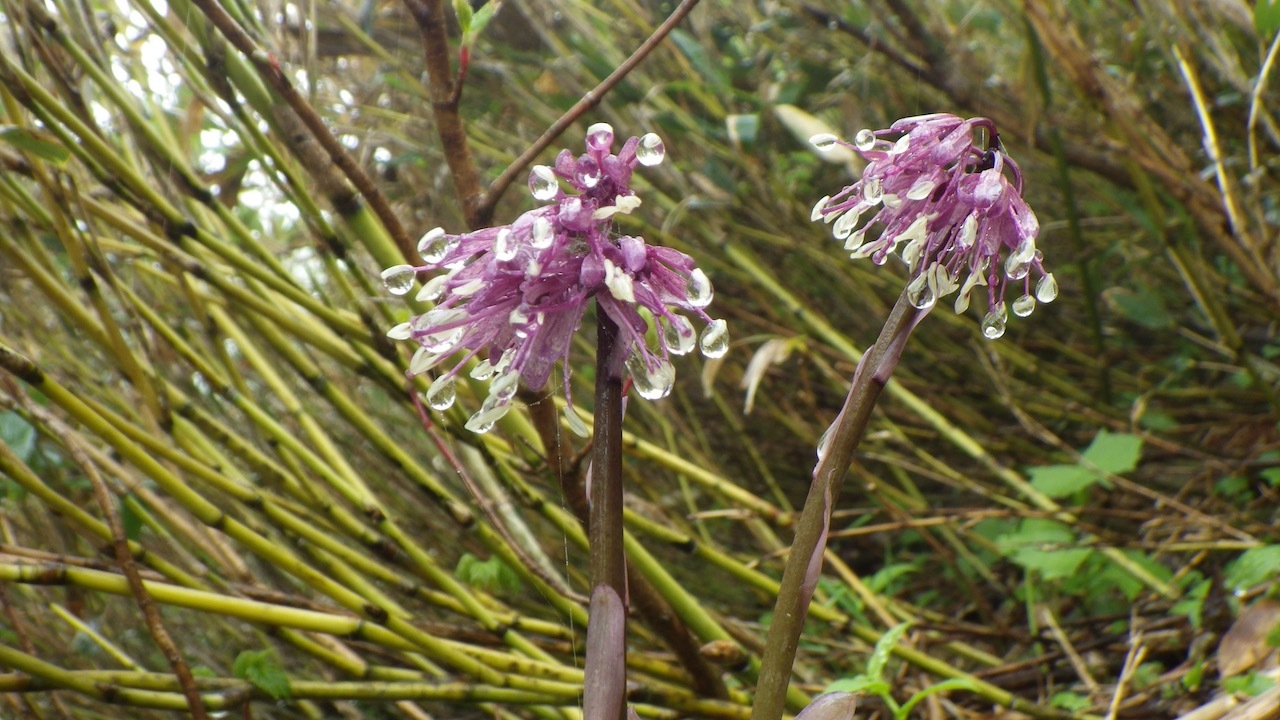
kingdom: Plantae
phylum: Tracheophyta
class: Liliopsida
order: Liliales
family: Melanthiaceae
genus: Helonias
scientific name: Helonias orientalis
